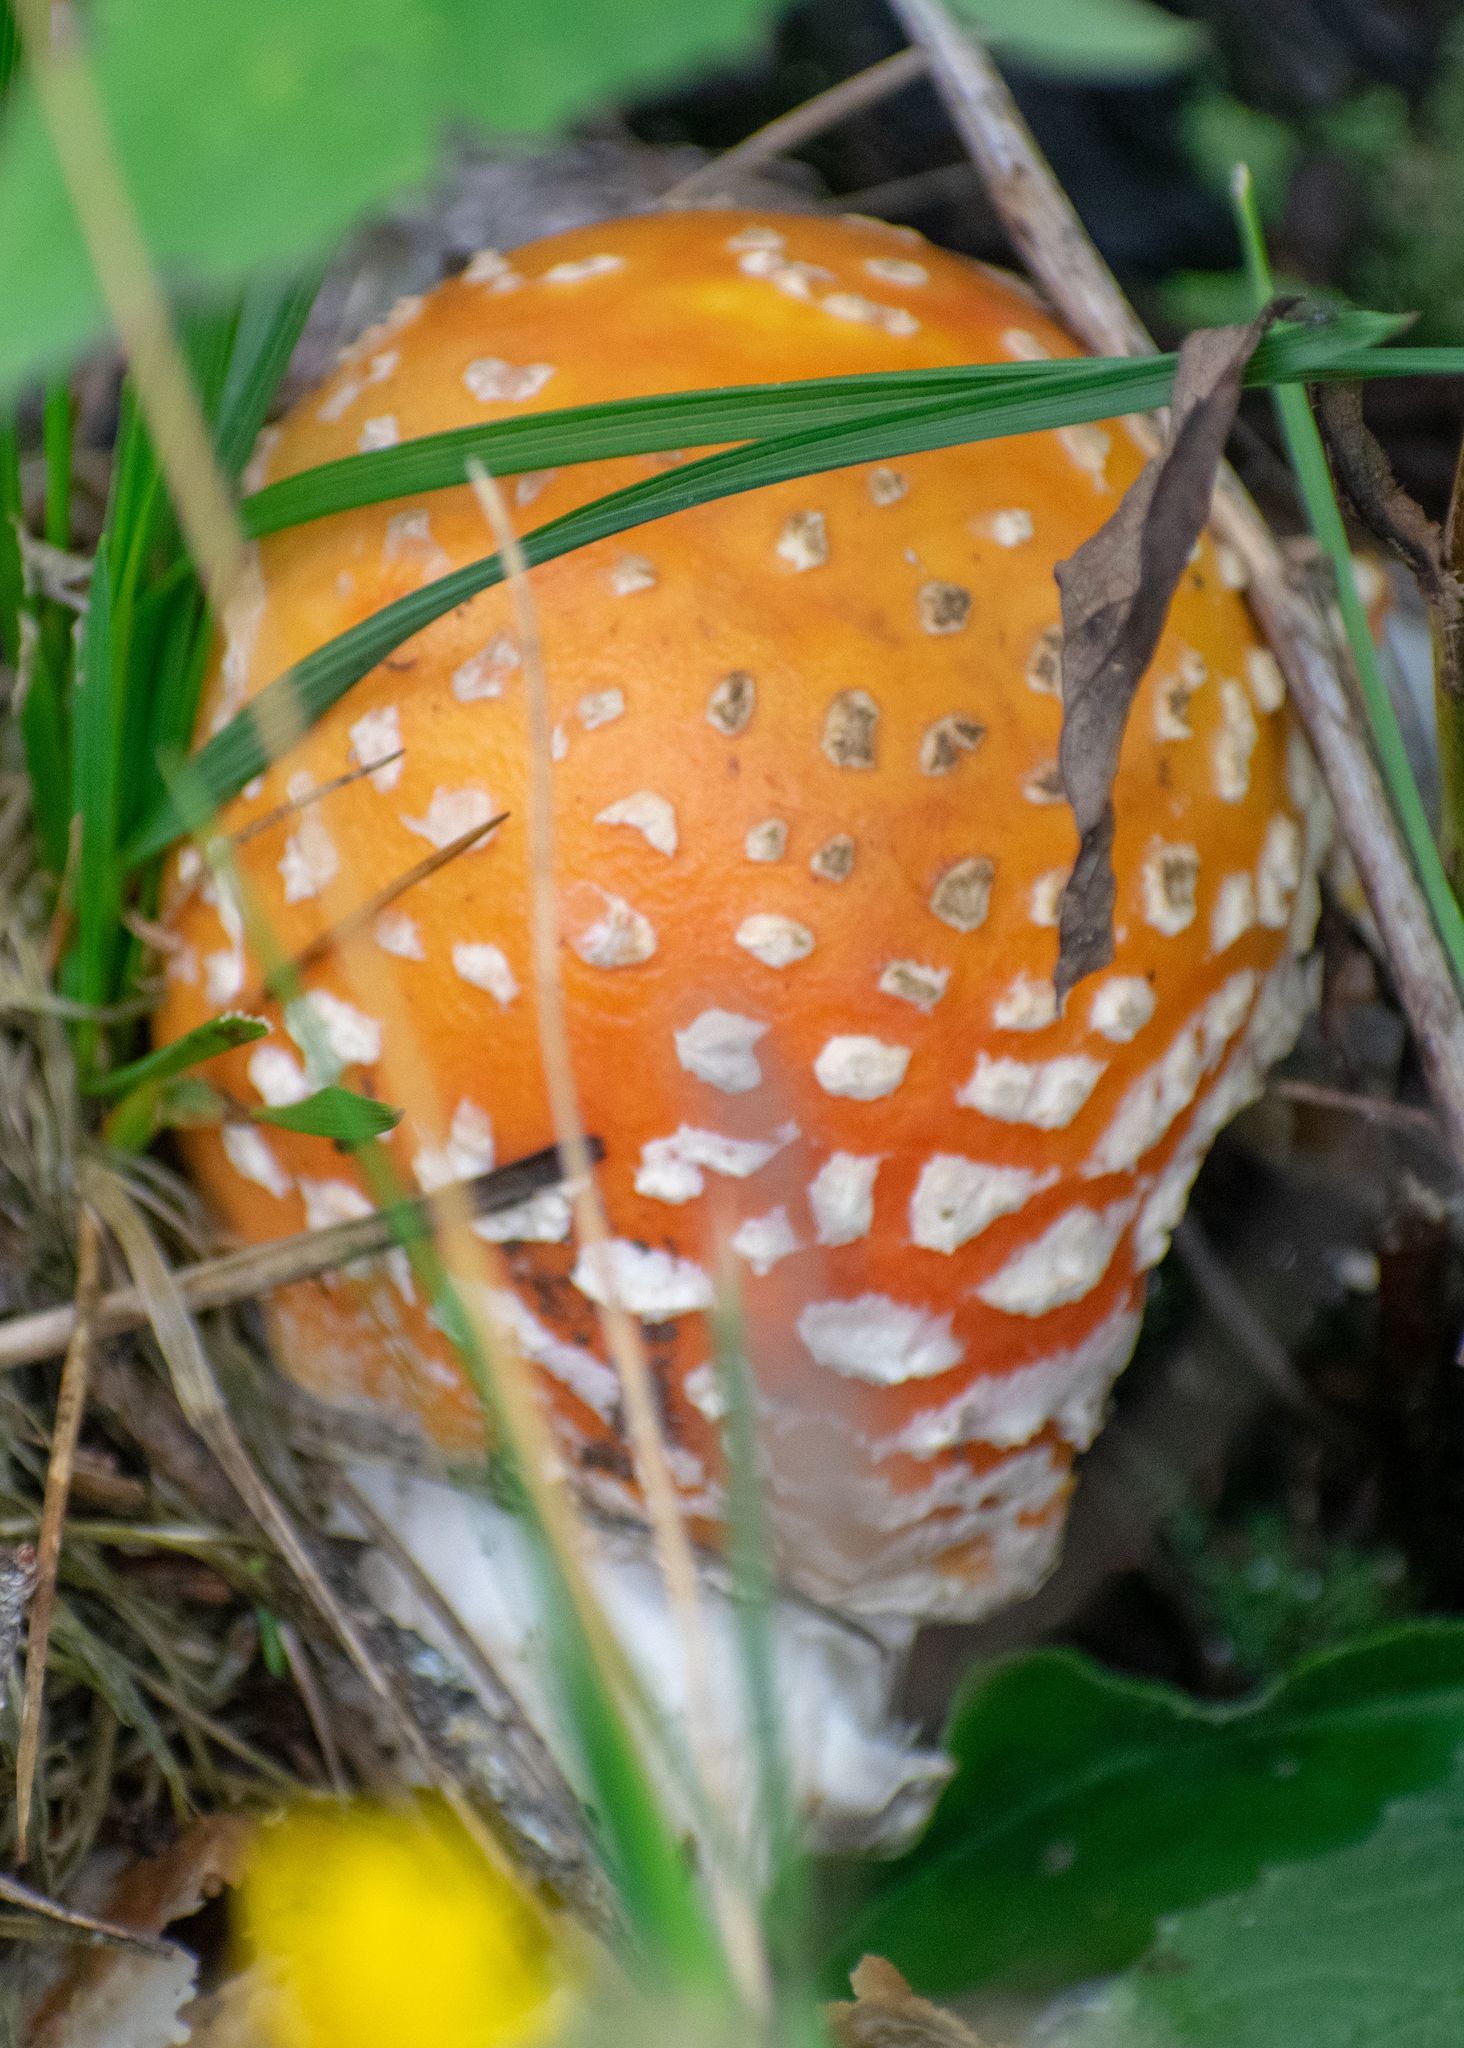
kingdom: Fungi
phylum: Basidiomycota
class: Agaricomycetes
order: Agaricales
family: Amanitaceae
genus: Amanita
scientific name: Amanita muscaria
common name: Fly agaric
